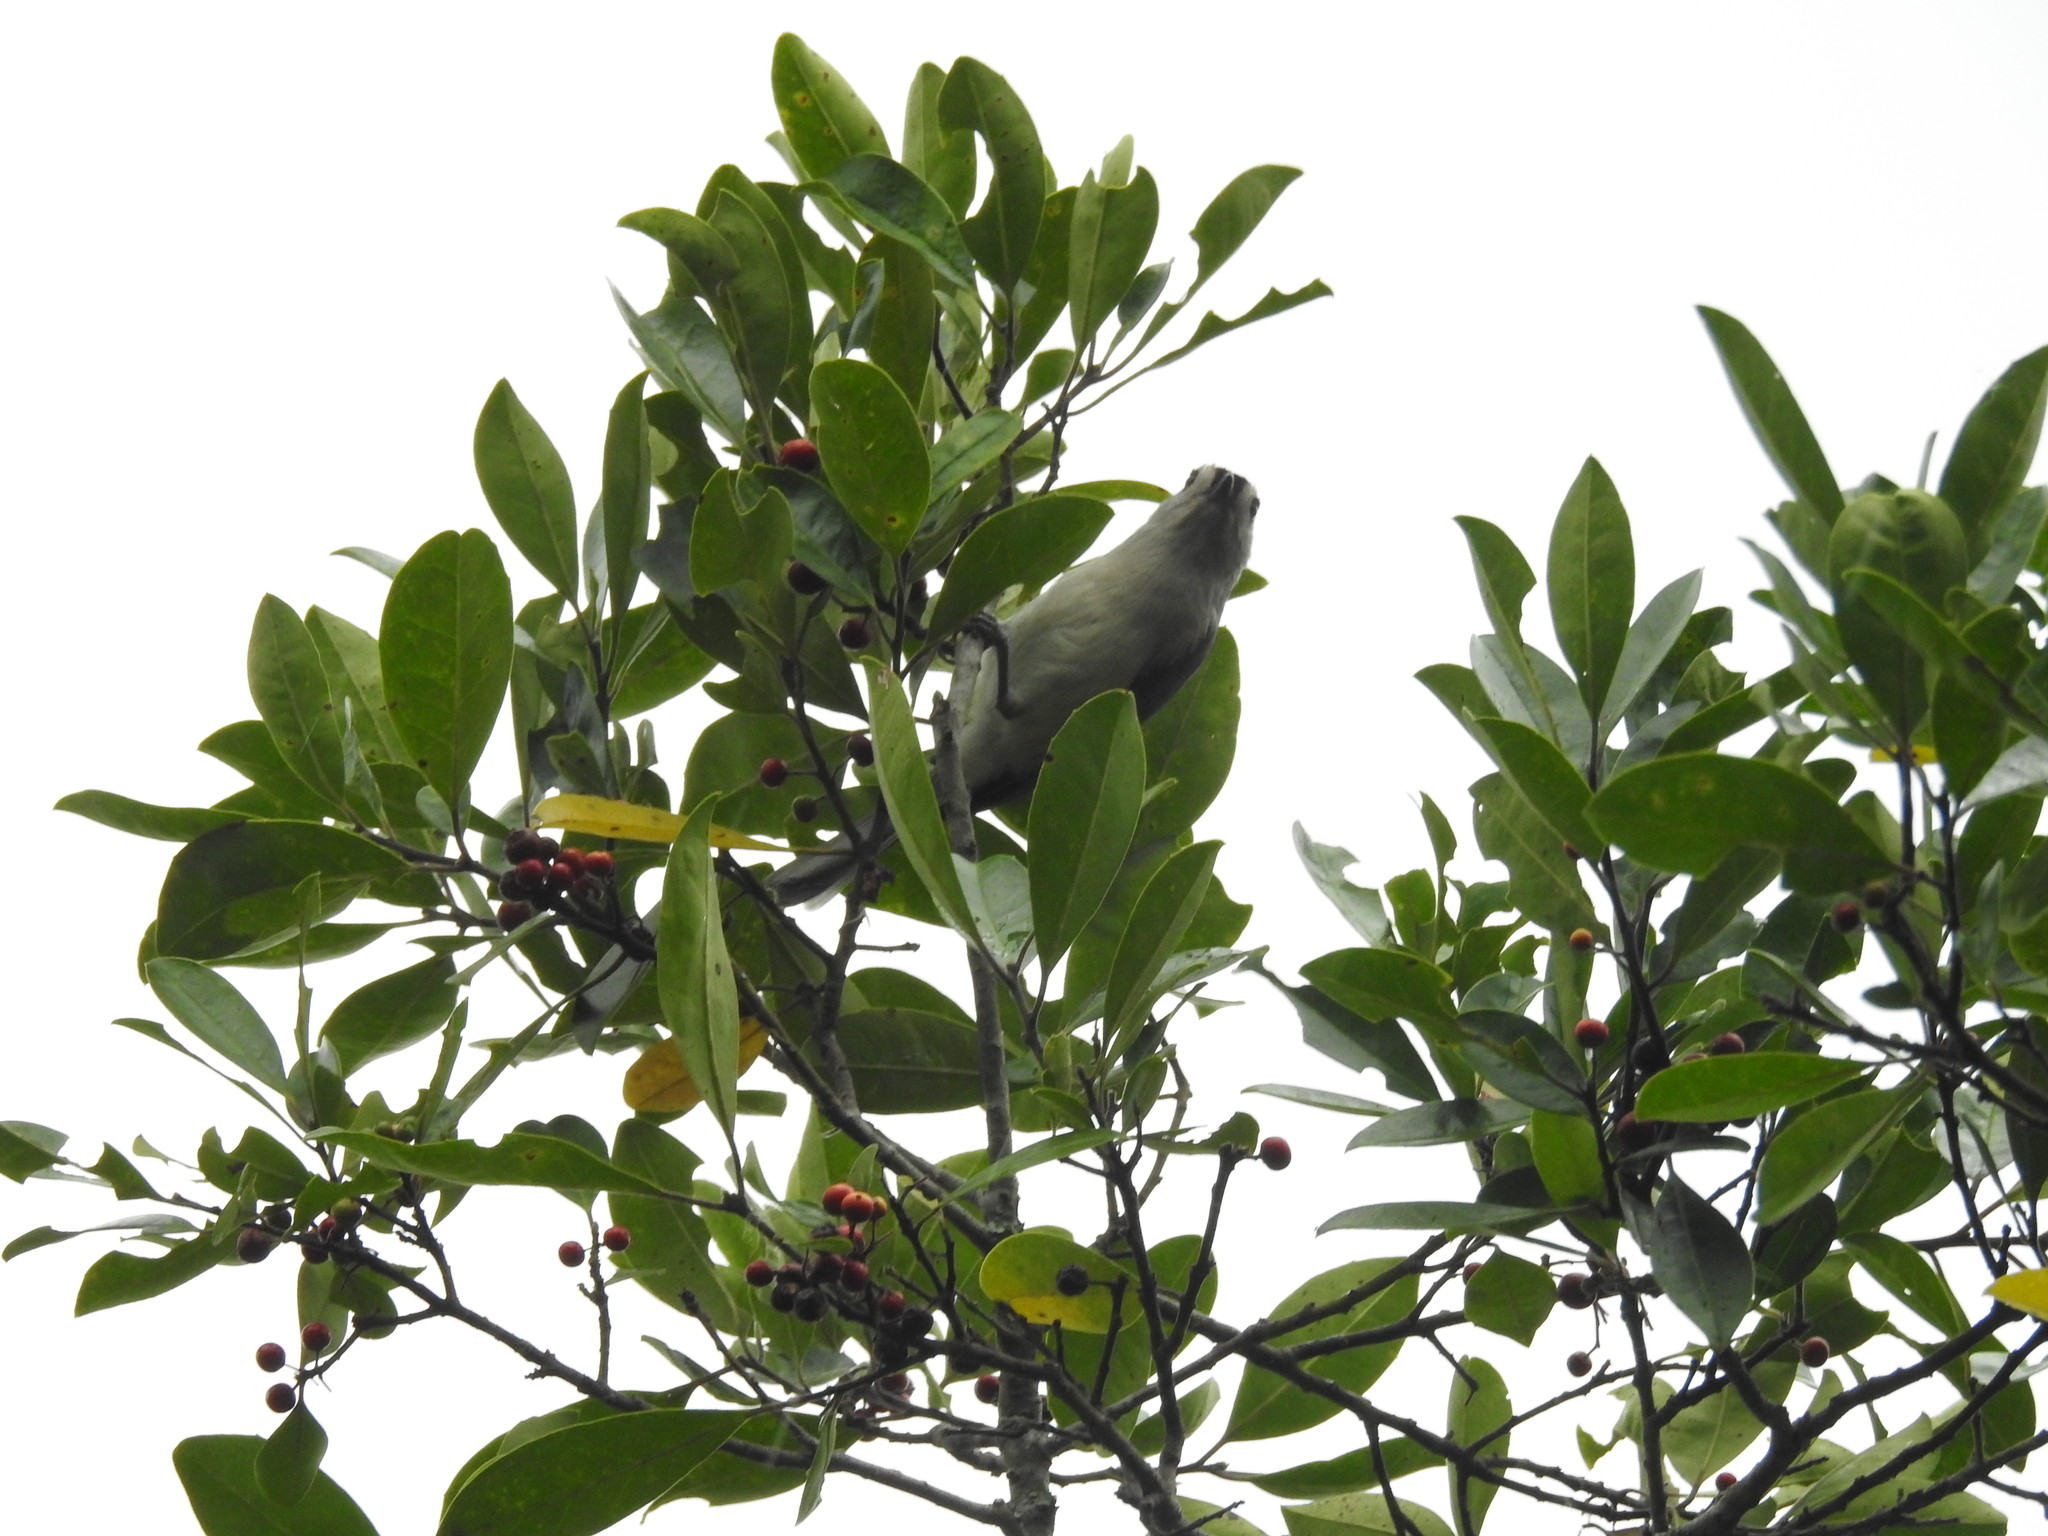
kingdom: Animalia
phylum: Chordata
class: Aves
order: Passeriformes
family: Paridae
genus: Baeolophus
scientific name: Baeolophus bicolor
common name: Tufted titmouse
